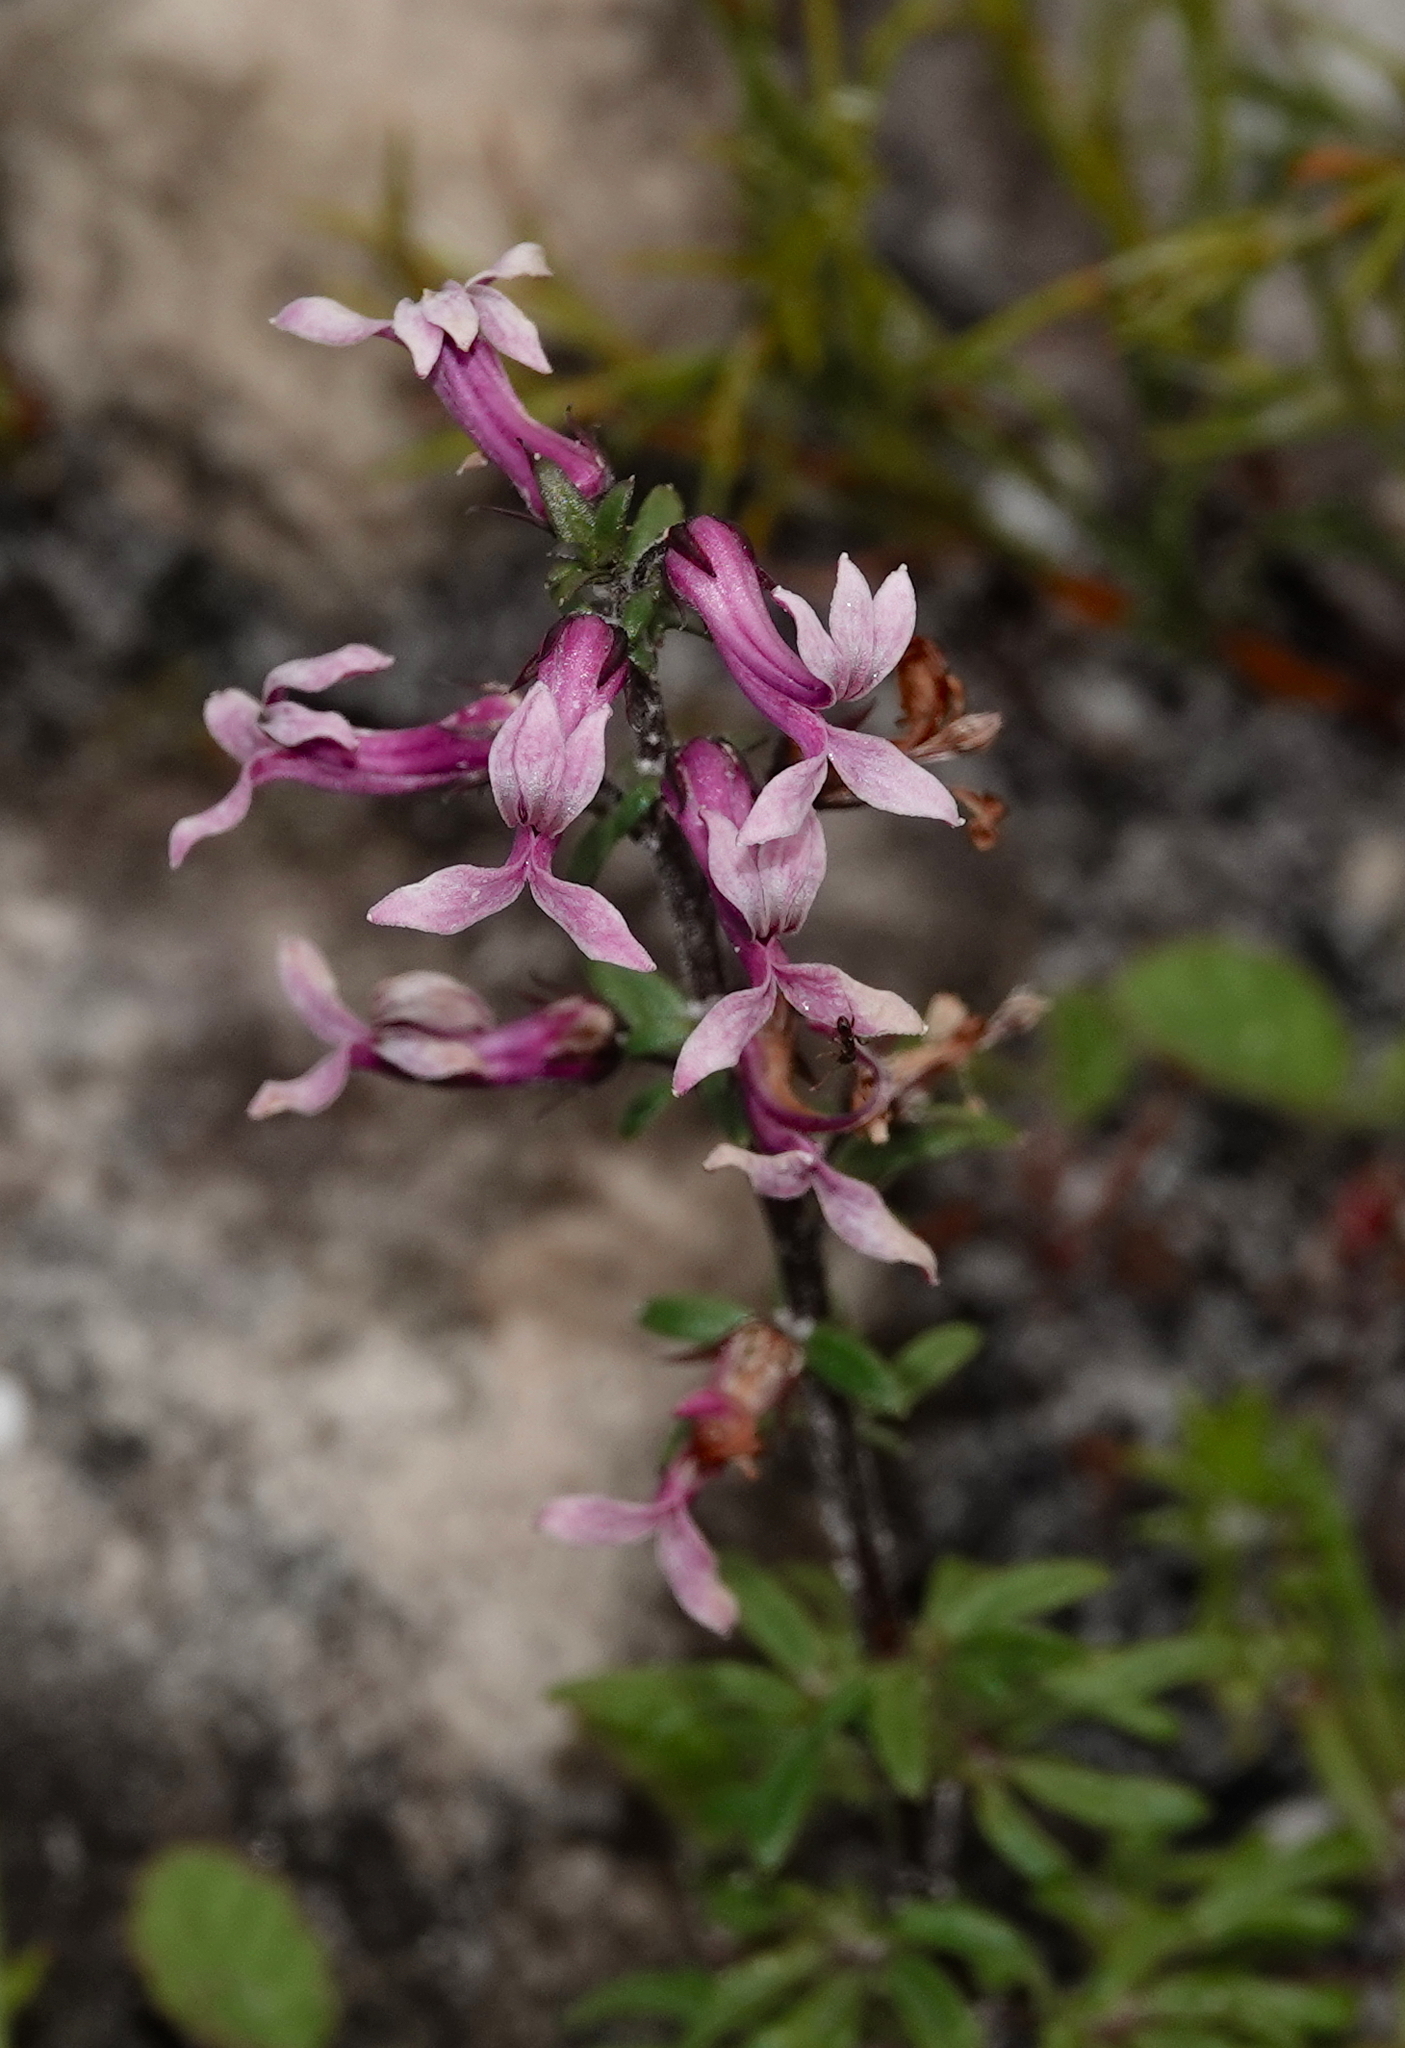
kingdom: Plantae
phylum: Tracheophyta
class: Magnoliopsida
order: Asterales
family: Campanulaceae
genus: Cyphia
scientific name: Cyphia bulbosa
